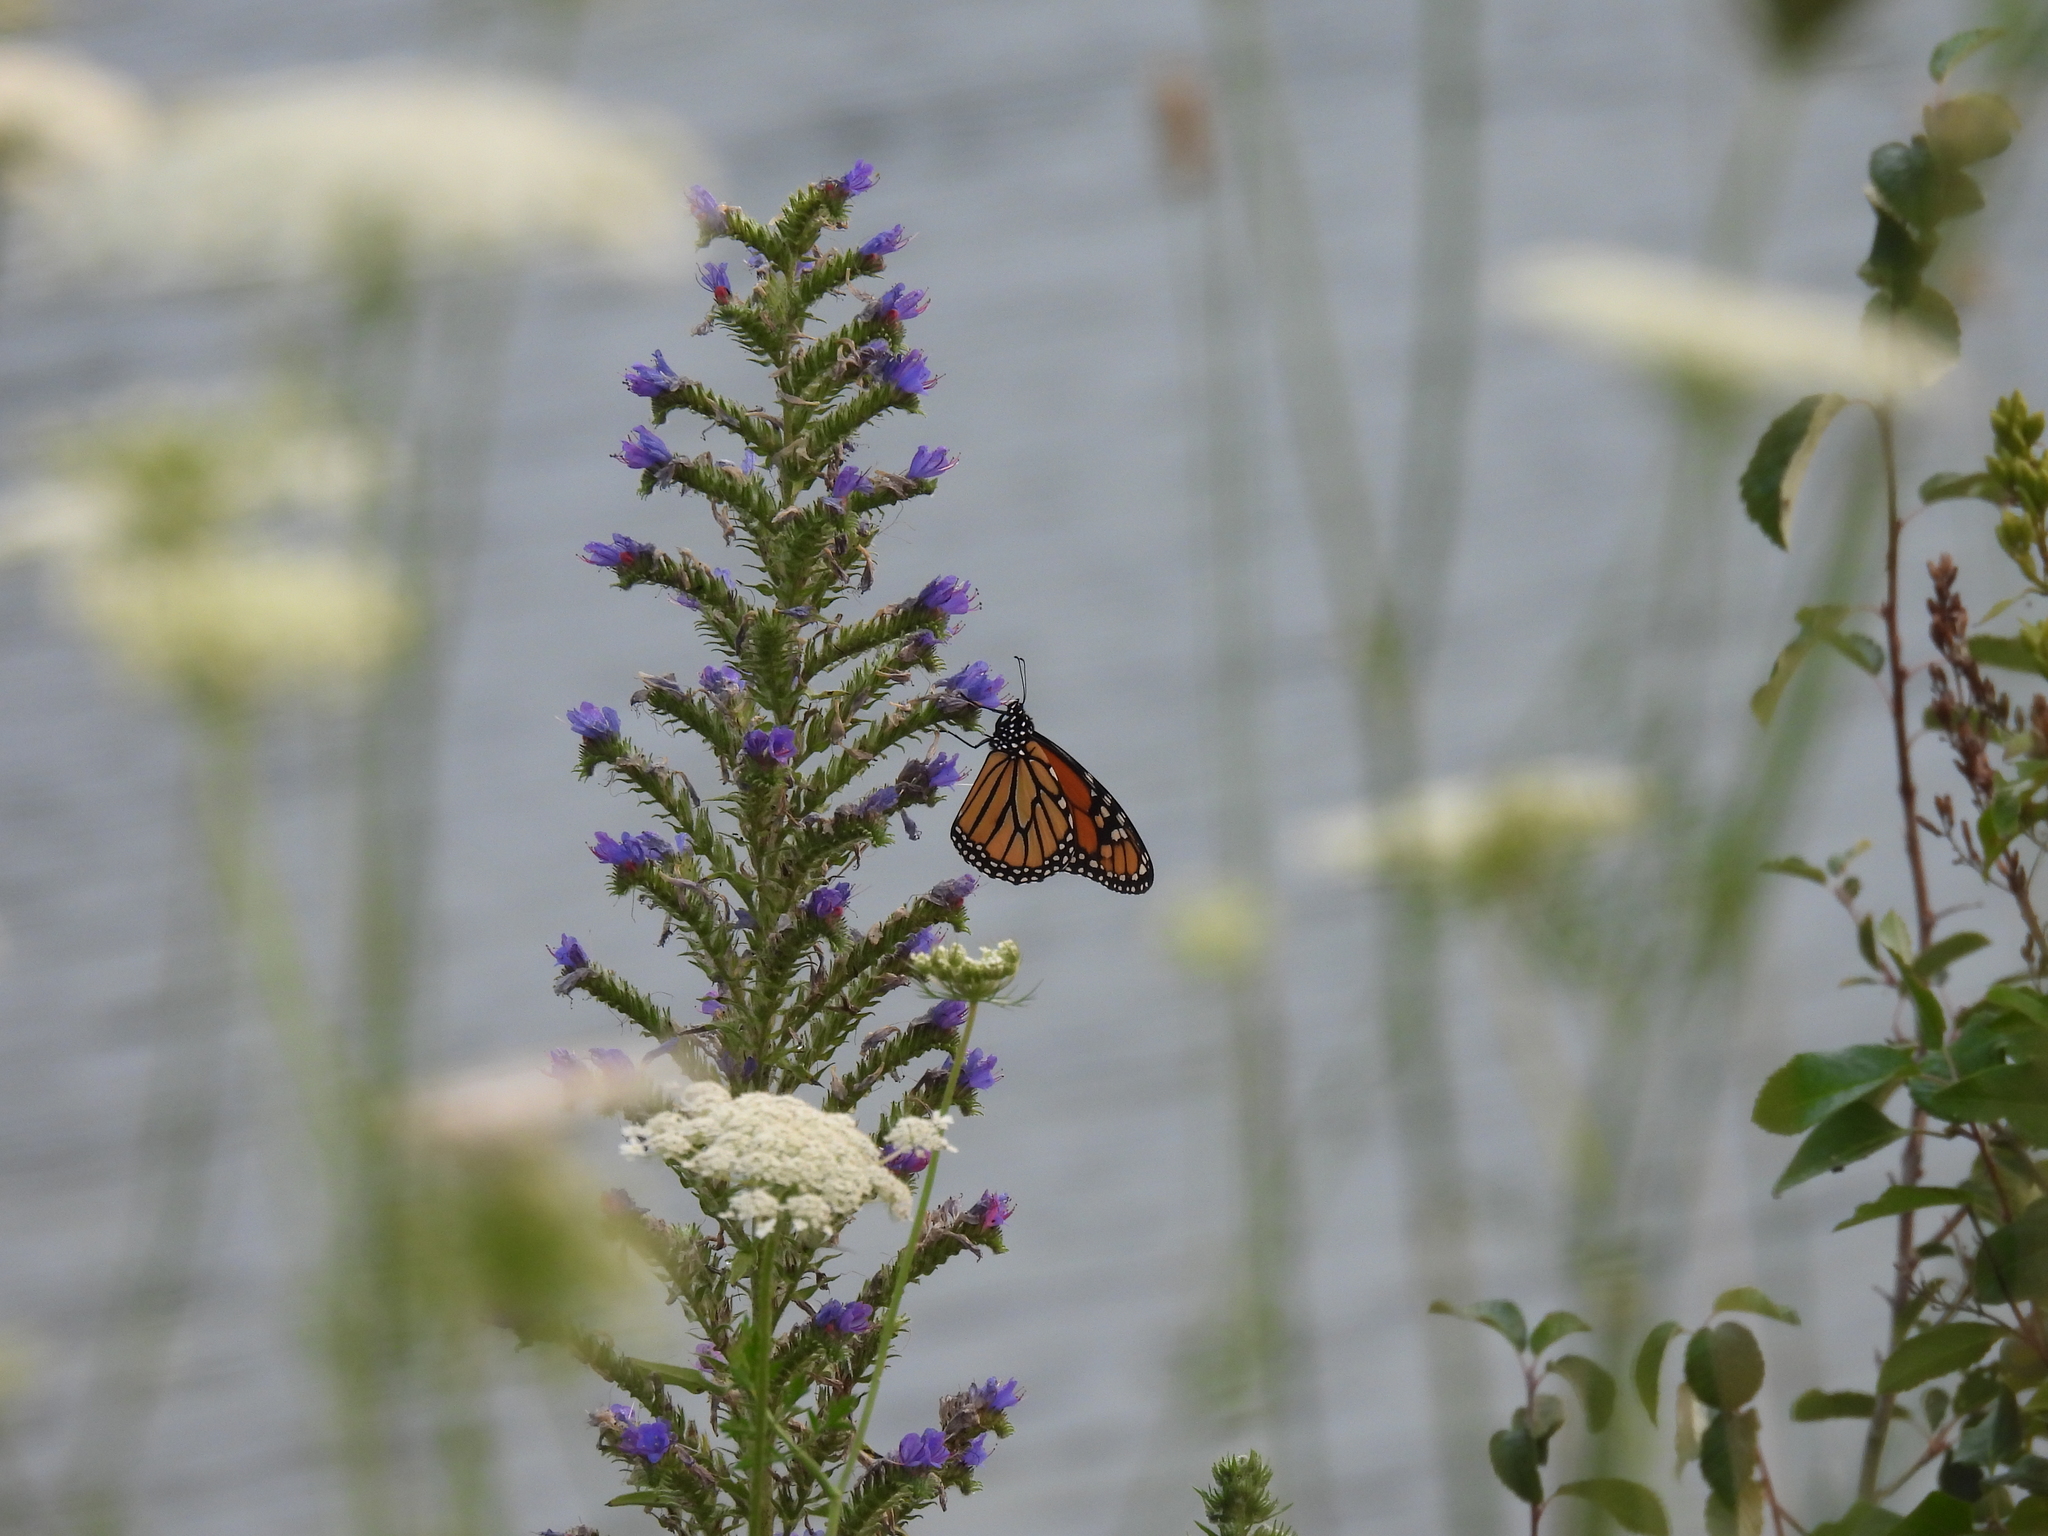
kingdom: Animalia
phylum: Arthropoda
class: Insecta
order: Lepidoptera
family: Nymphalidae
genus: Danaus
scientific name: Danaus plexippus
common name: Monarch
